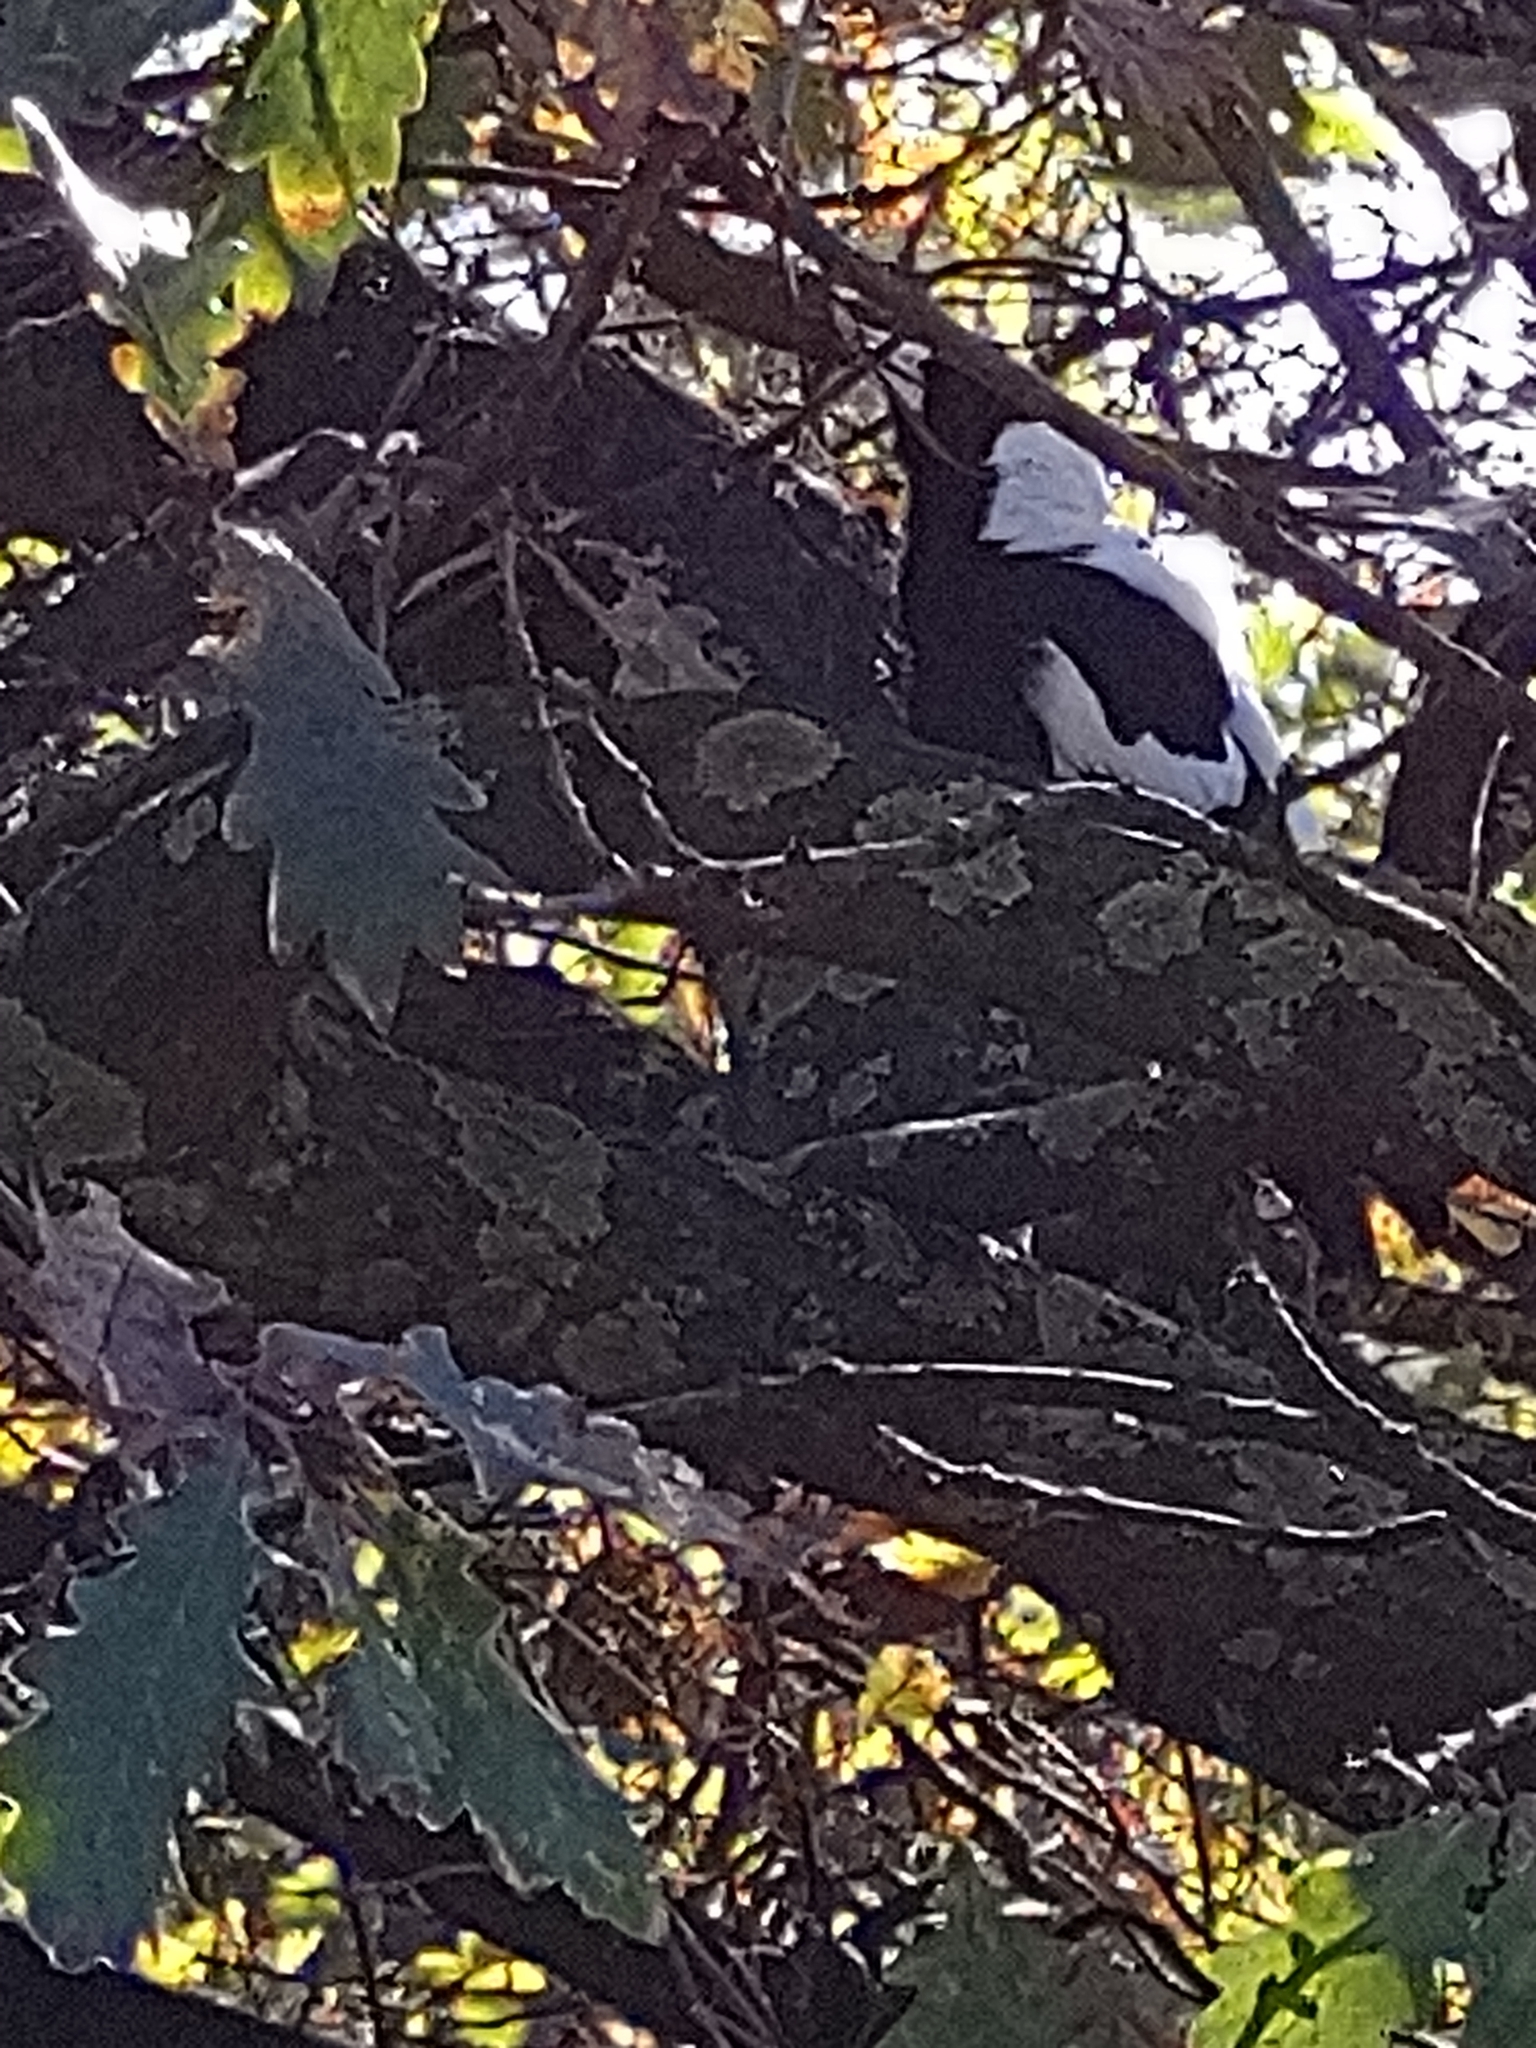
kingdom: Animalia
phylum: Chordata
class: Aves
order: Passeriformes
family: Cracticidae
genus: Gymnorhina
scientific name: Gymnorhina tibicen
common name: Australian magpie
